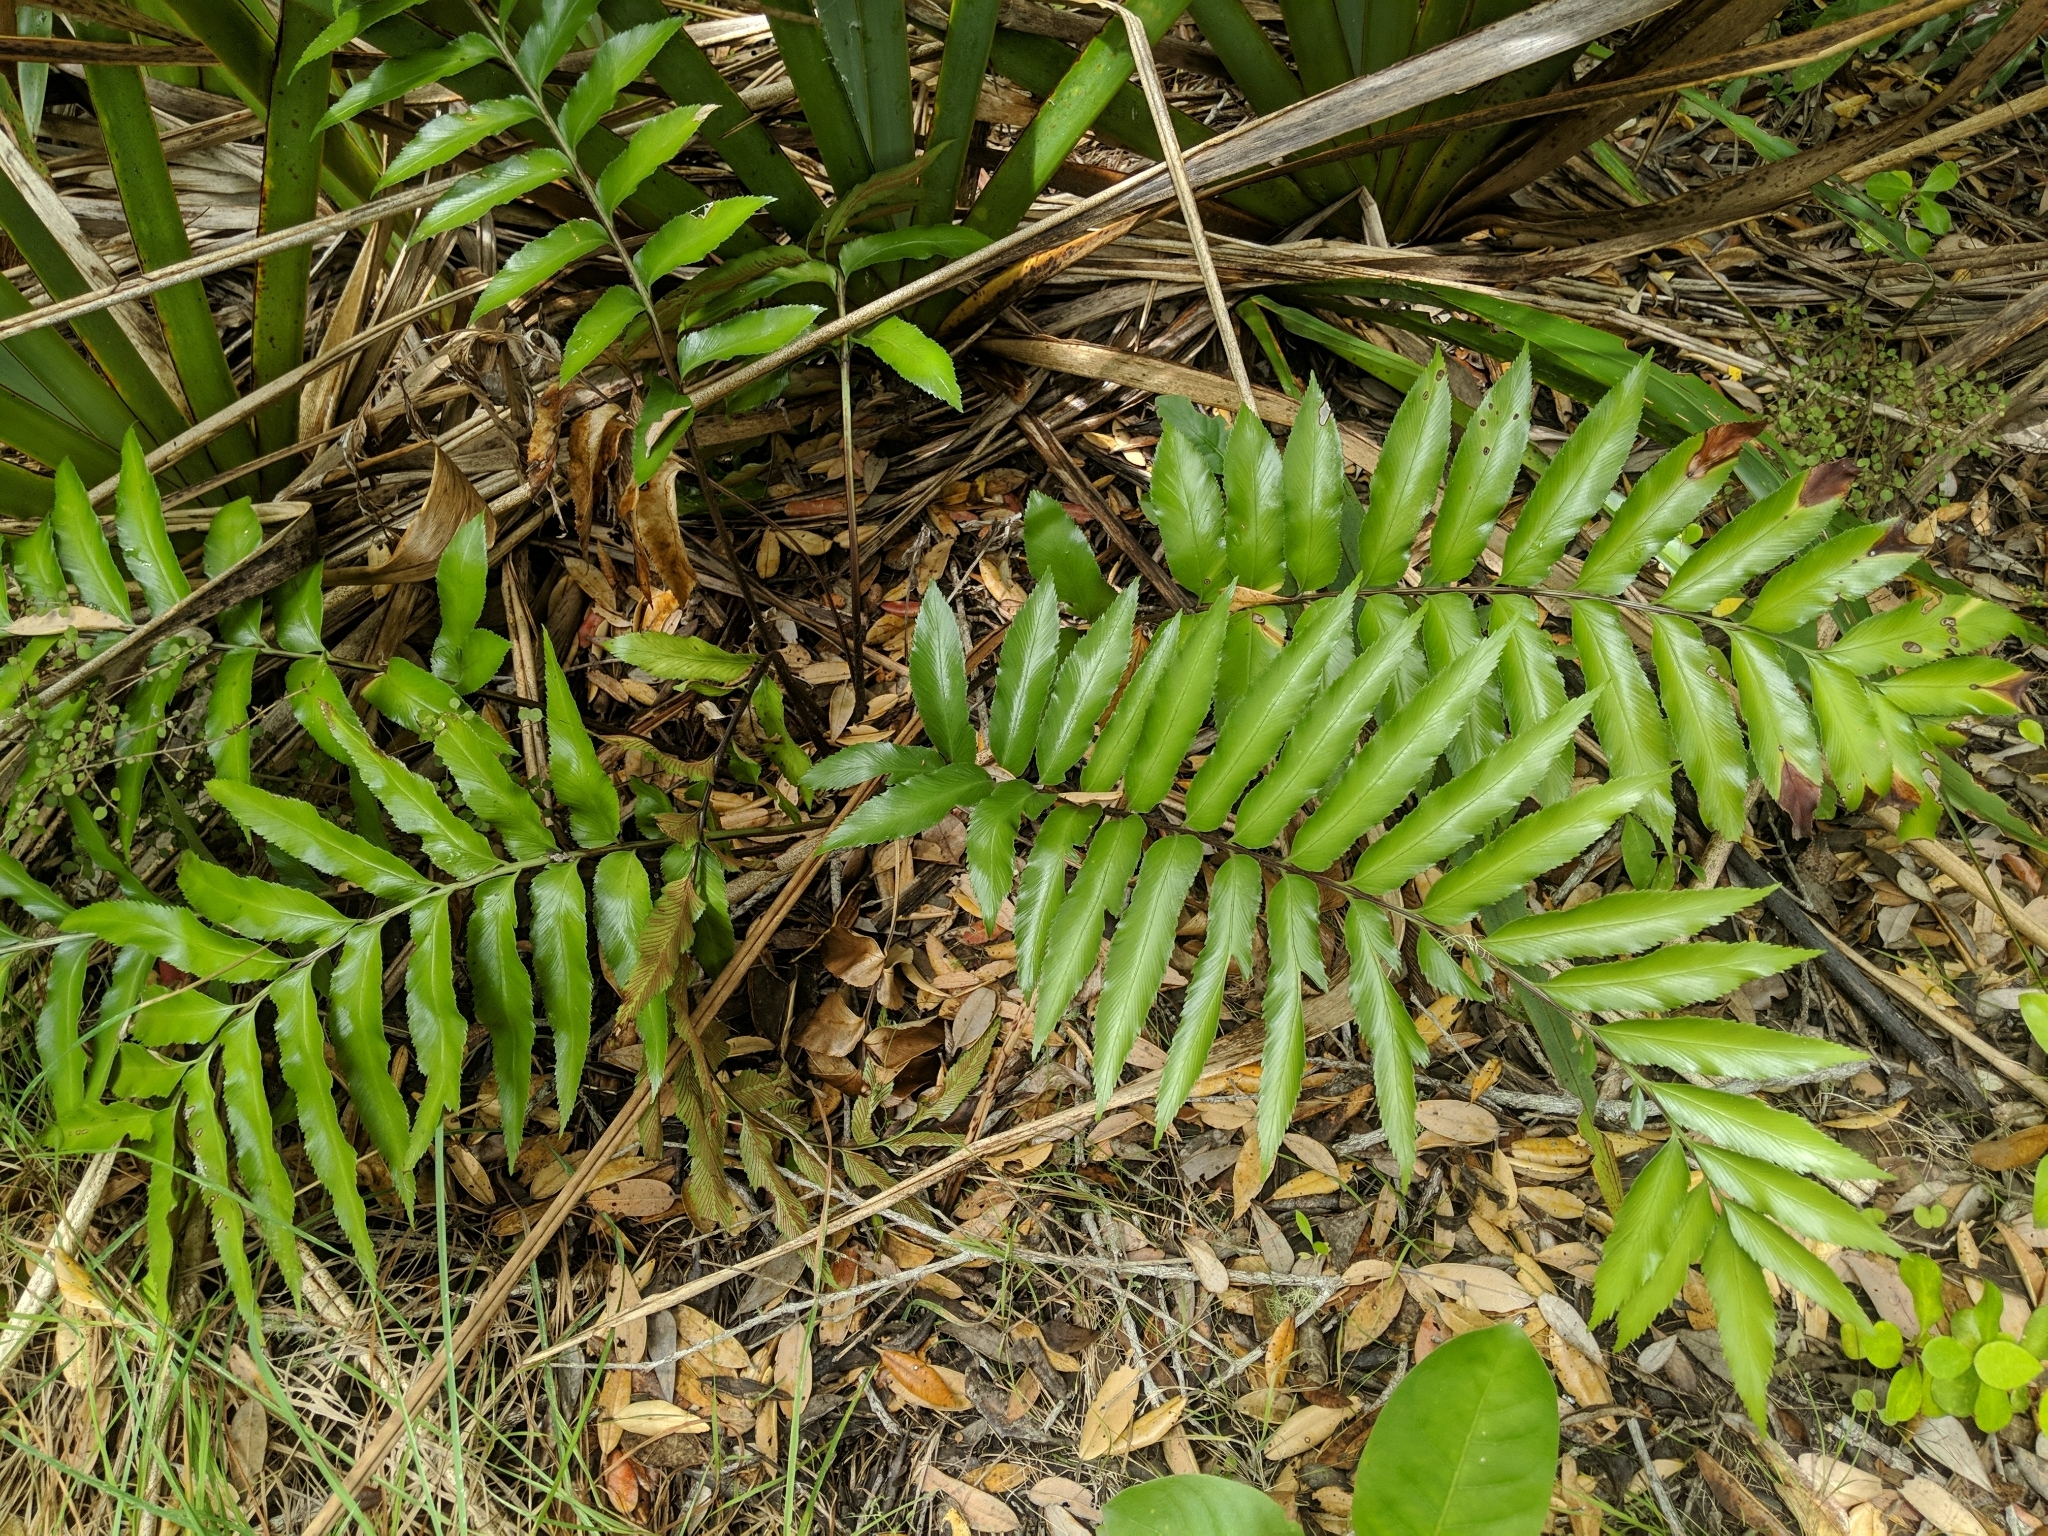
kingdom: Plantae
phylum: Tracheophyta
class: Polypodiopsida
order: Polypodiales
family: Aspleniaceae
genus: Asplenium
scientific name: Asplenium oblongifolium
